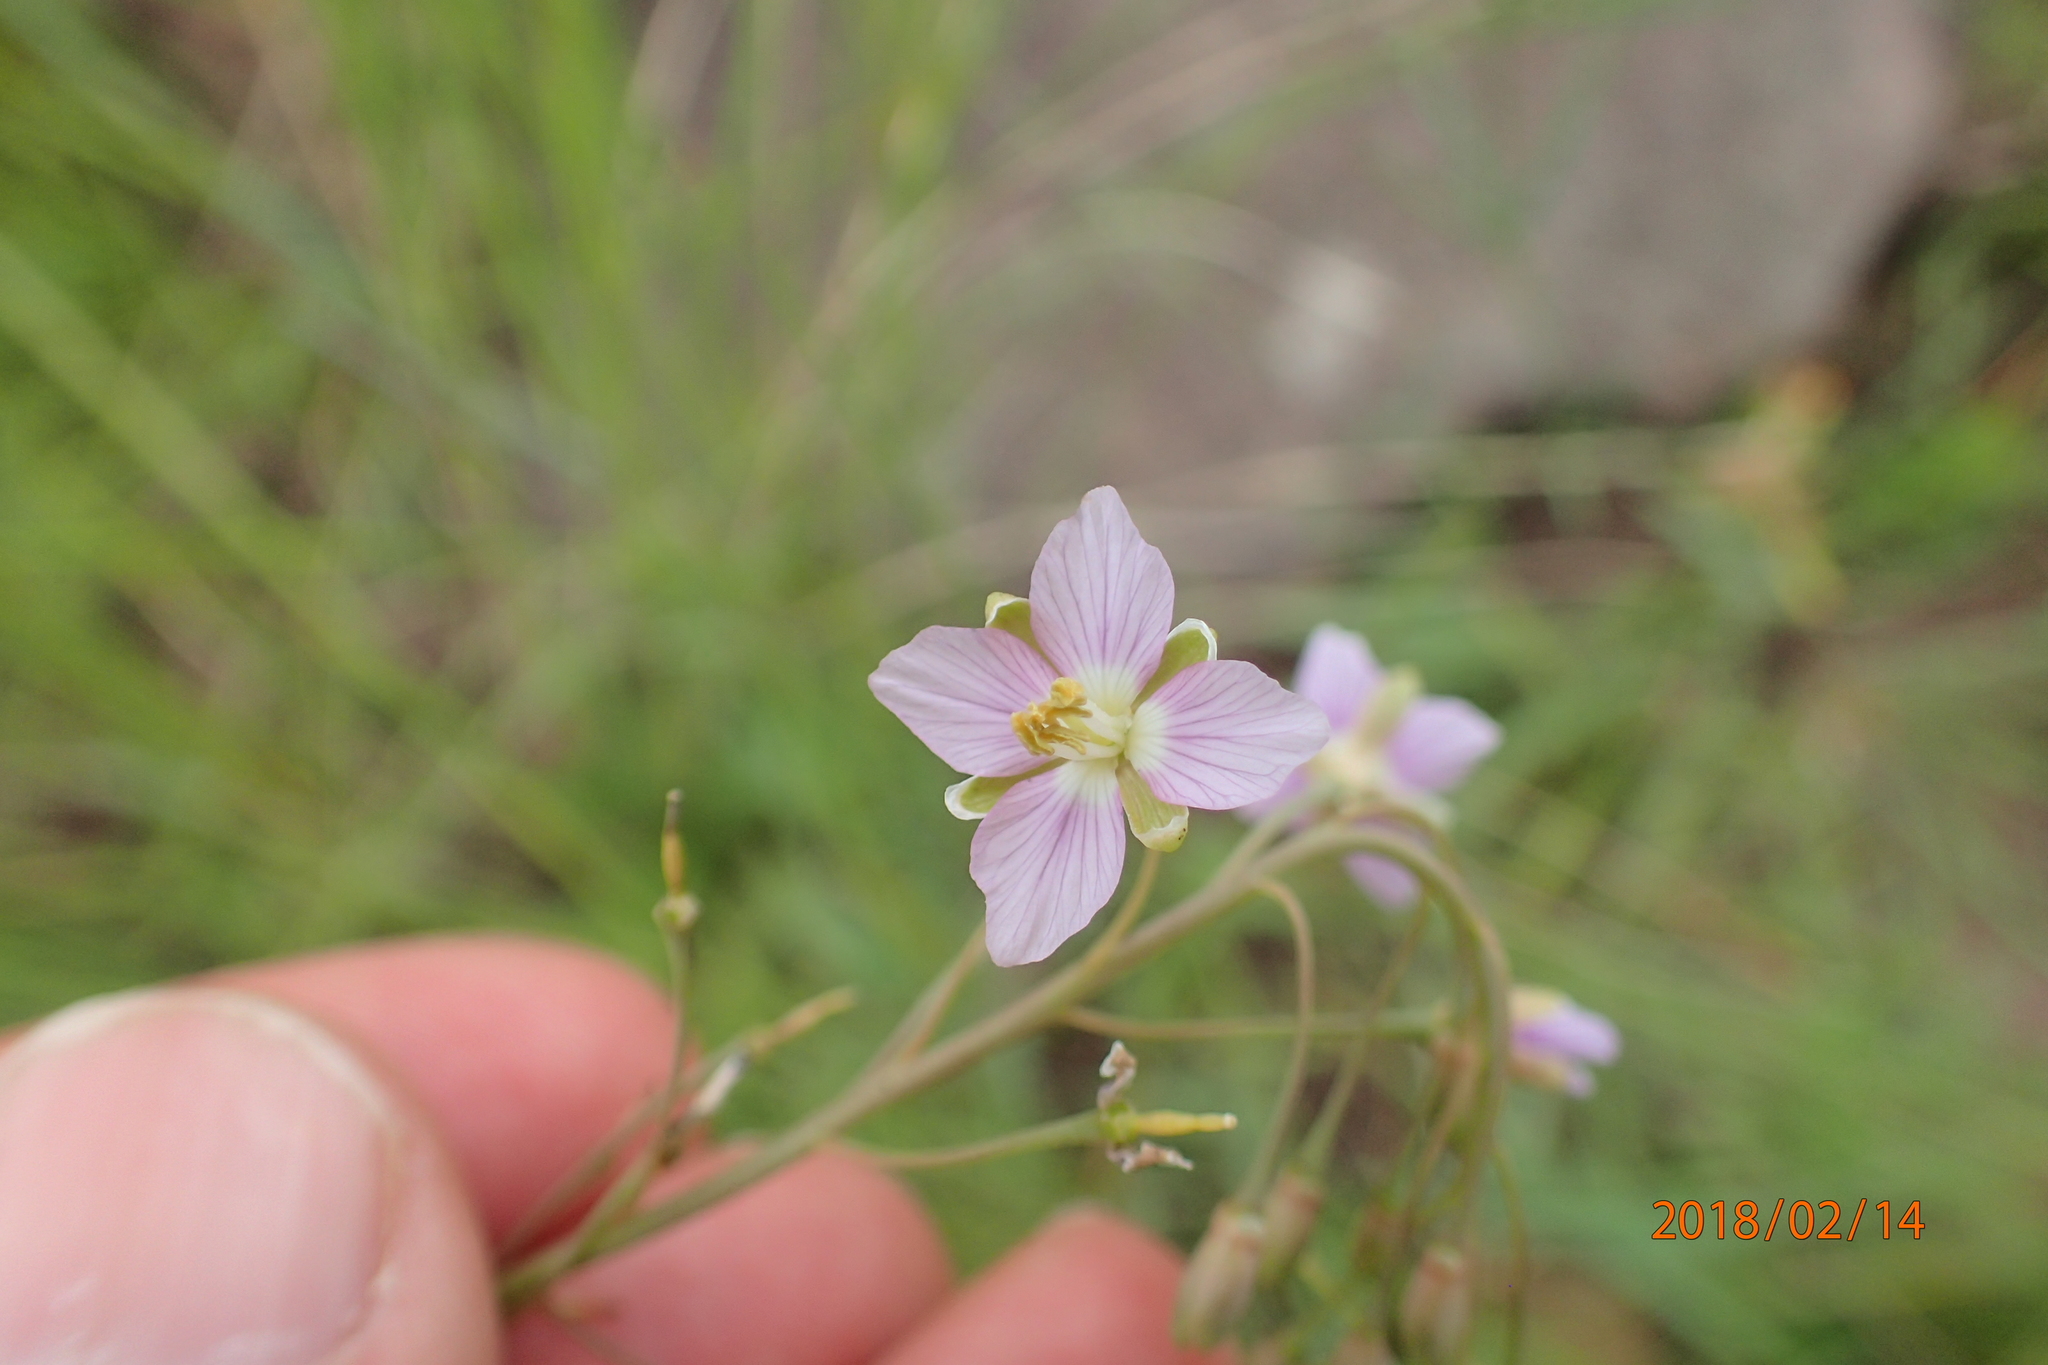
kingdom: Plantae
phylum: Tracheophyta
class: Magnoliopsida
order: Brassicales
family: Brassicaceae
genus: Heliophila
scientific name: Heliophila rigidiuscula
